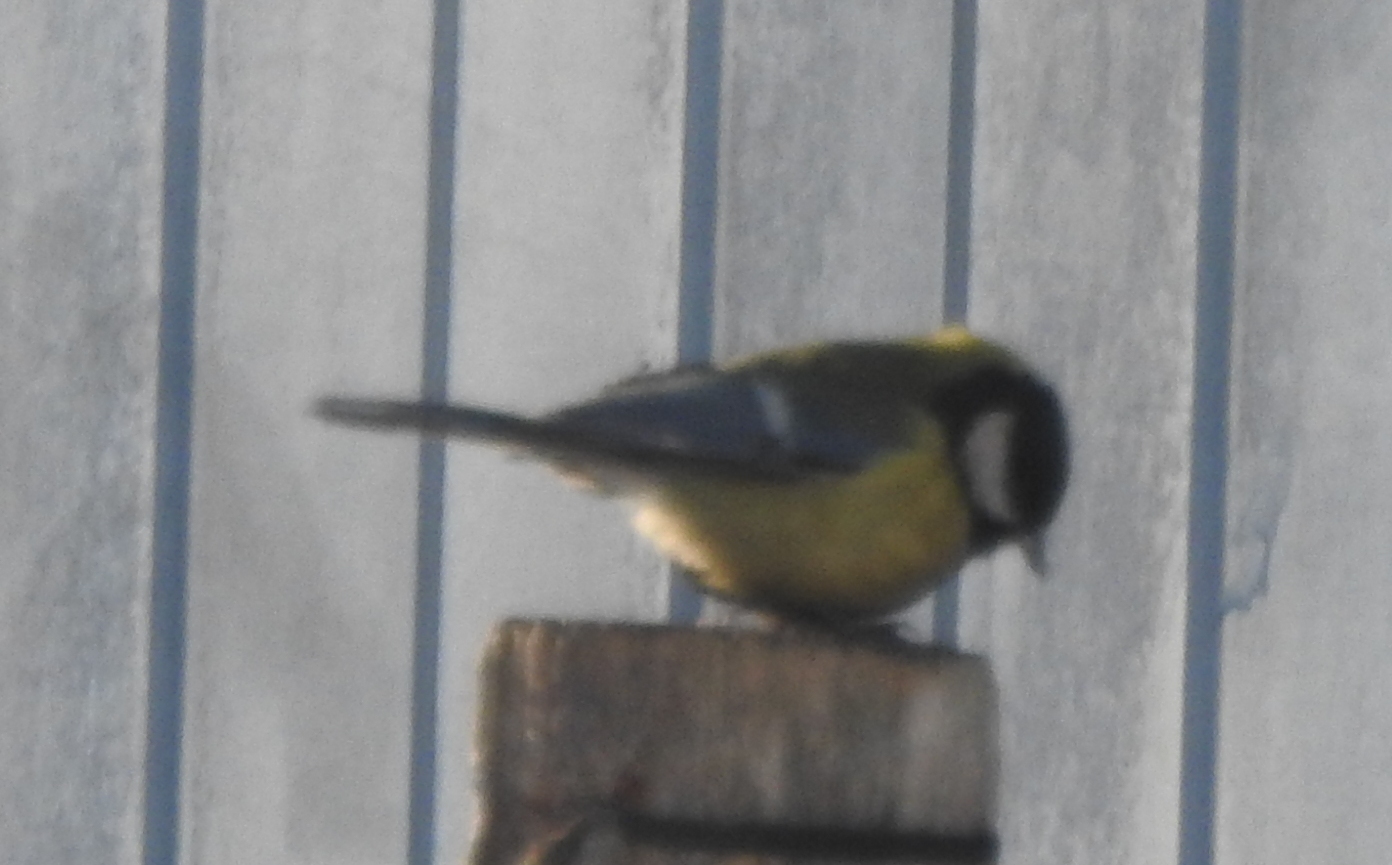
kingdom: Animalia
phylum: Chordata
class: Aves
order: Passeriformes
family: Paridae
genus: Parus
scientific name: Parus major
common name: Great tit
